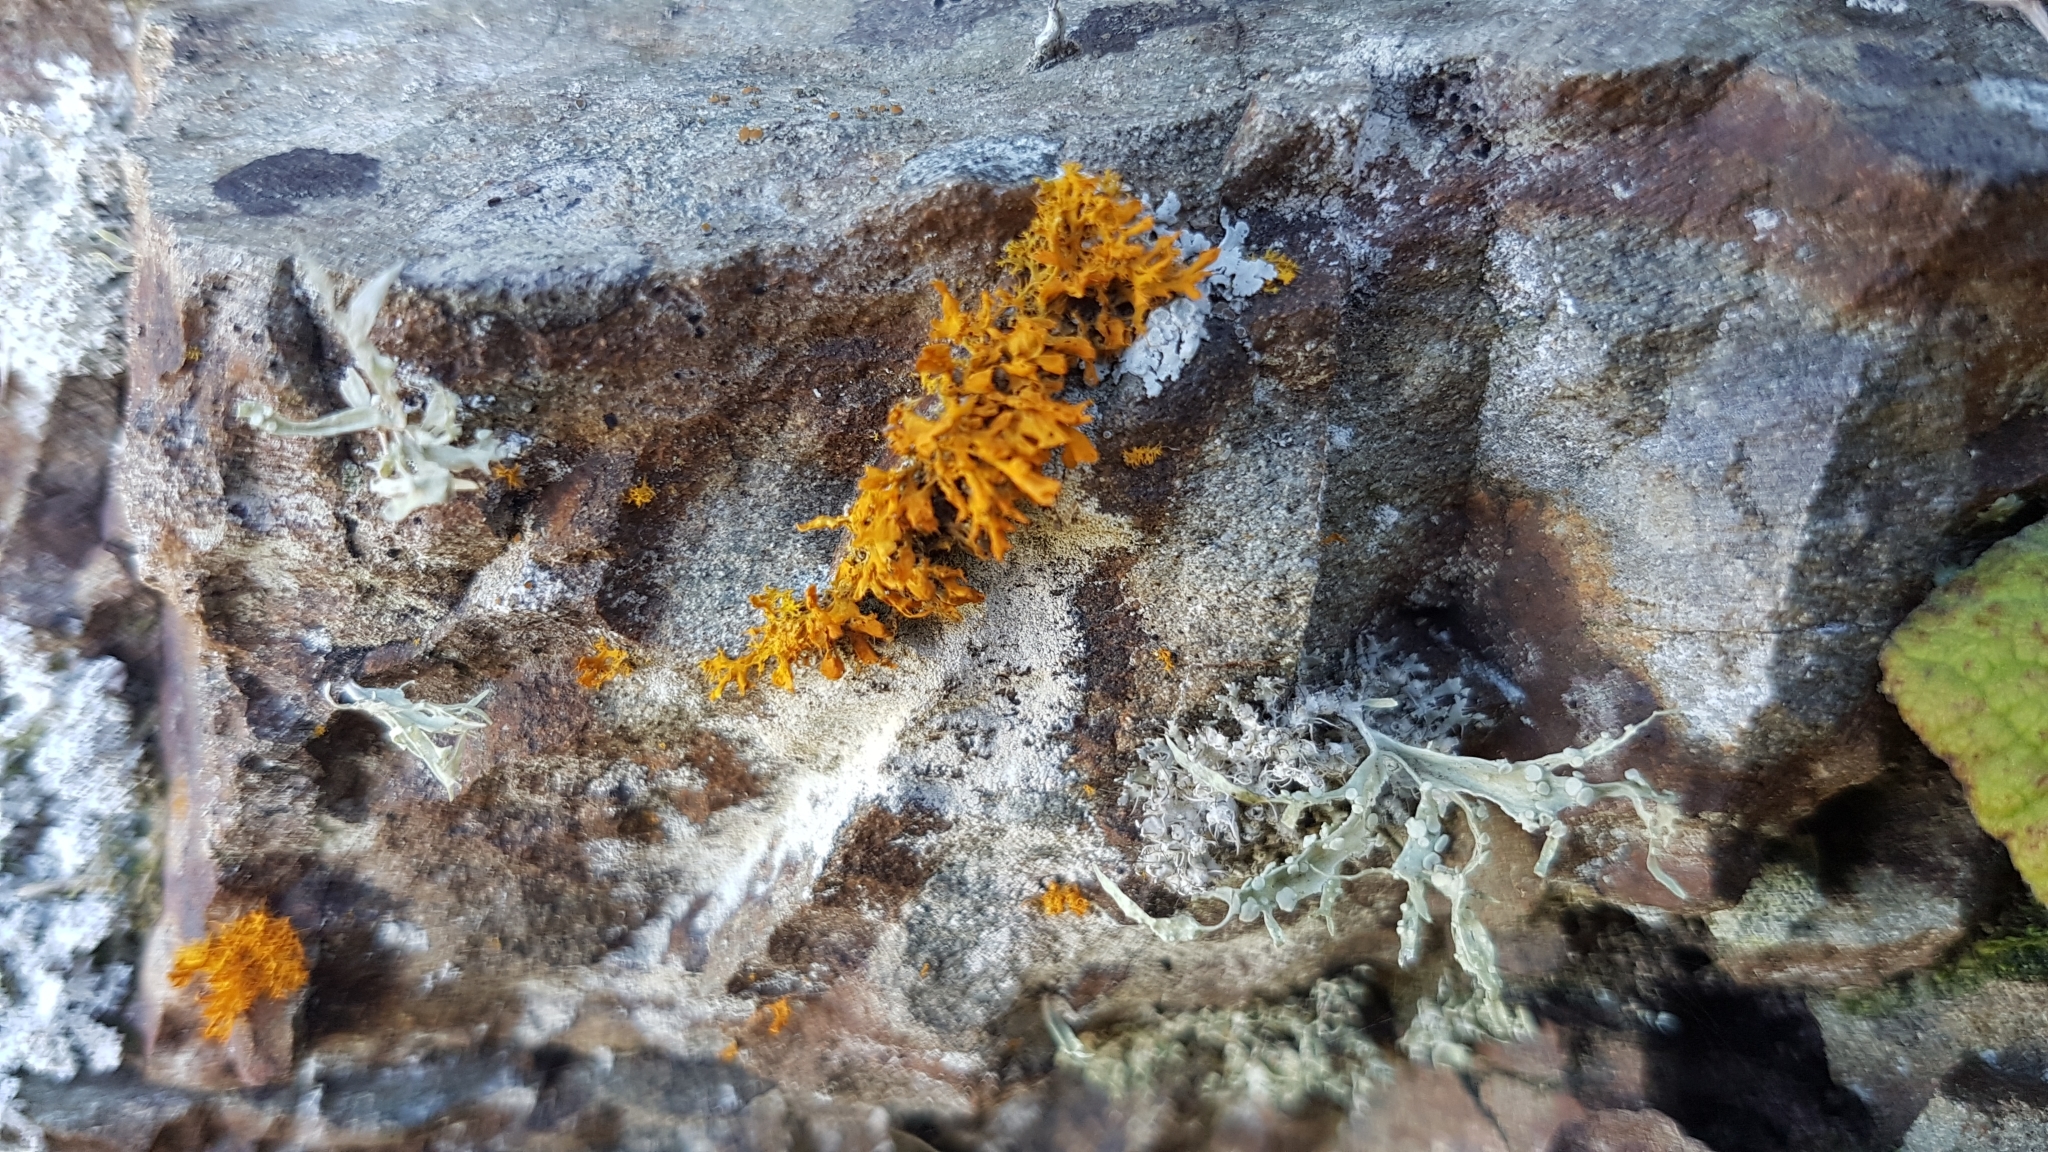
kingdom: Fungi
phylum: Ascomycota
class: Lecanoromycetes
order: Teloschistales
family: Teloschistaceae
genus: Teloschistes
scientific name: Teloschistes velifer
